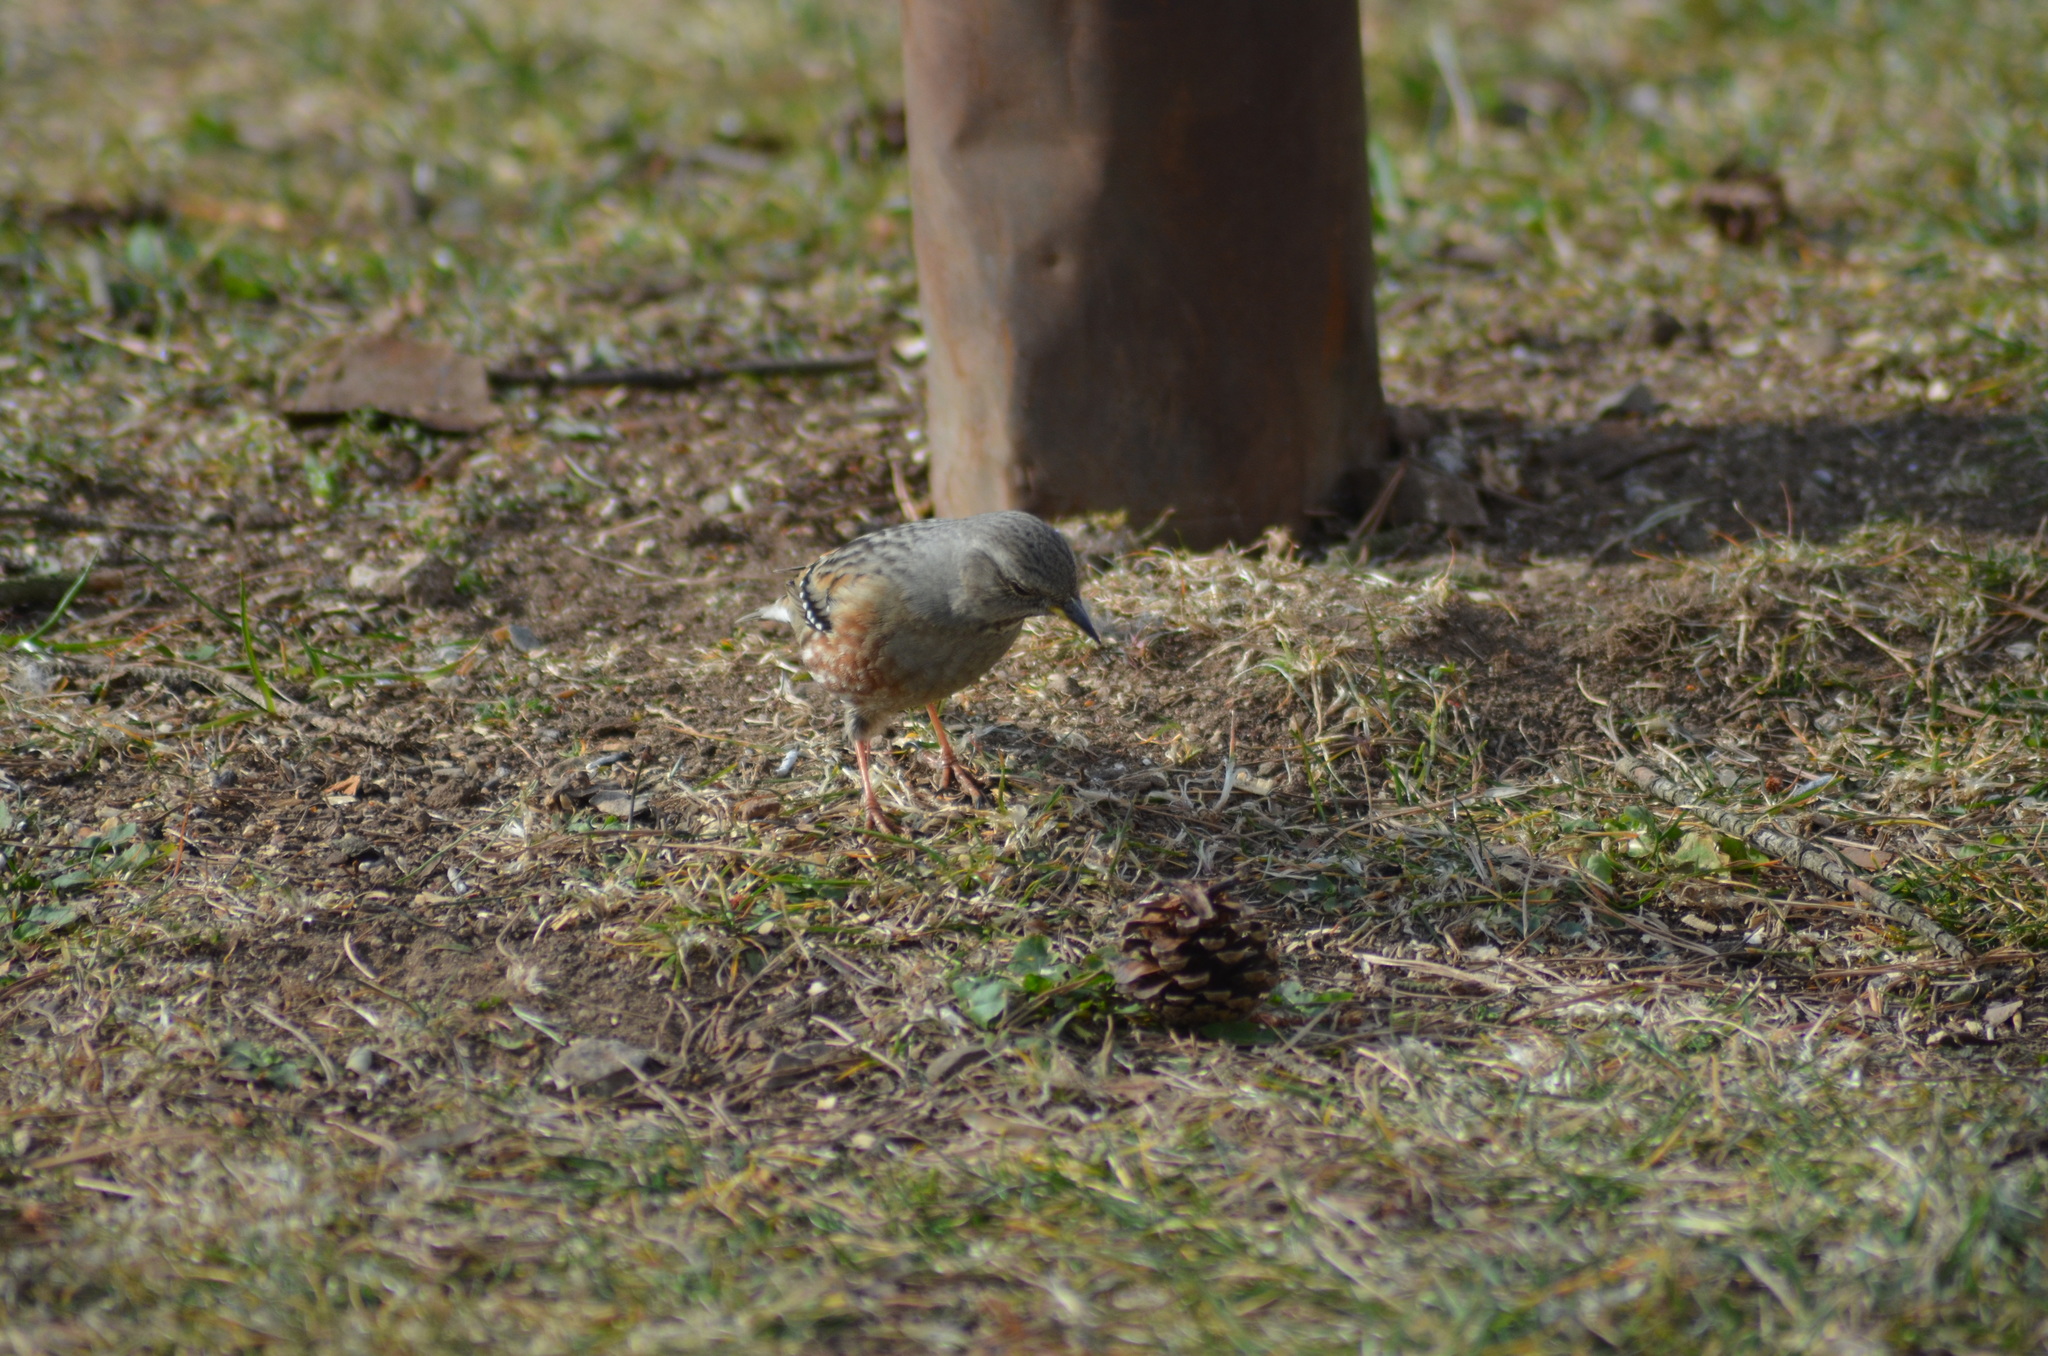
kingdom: Animalia
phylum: Chordata
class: Aves
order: Passeriformes
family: Prunellidae
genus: Prunella
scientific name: Prunella collaris
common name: Alpine accentor
